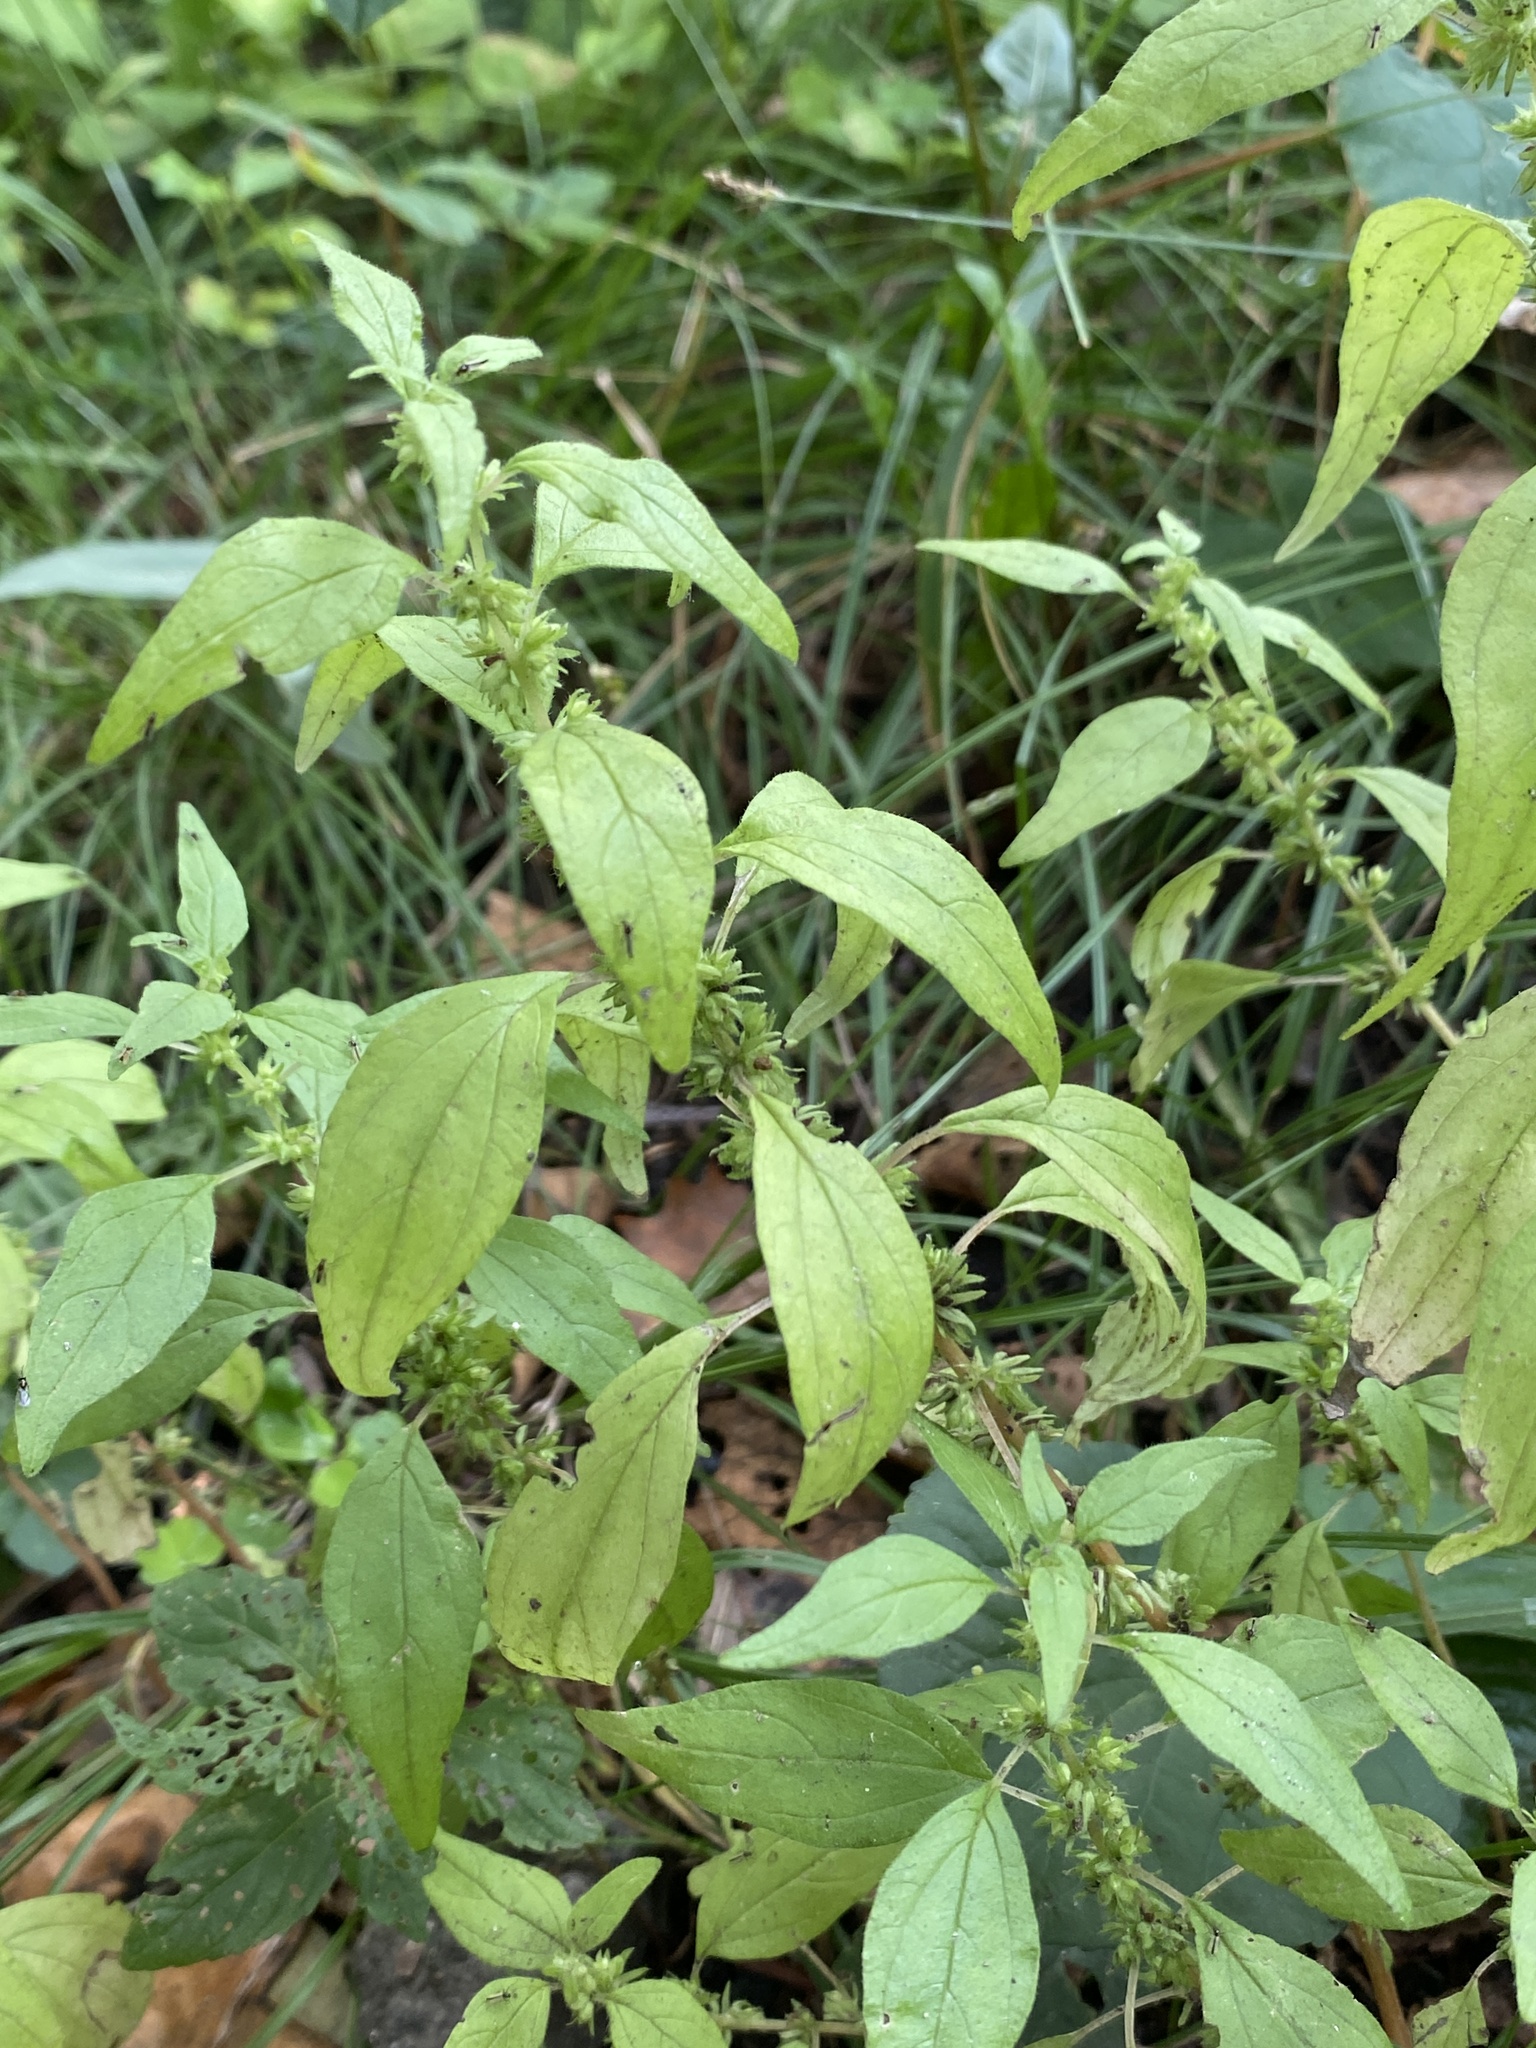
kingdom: Plantae
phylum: Tracheophyta
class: Magnoliopsida
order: Rosales
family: Urticaceae
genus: Parietaria
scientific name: Parietaria pensylvanica
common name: Pennsylvania pellitory
